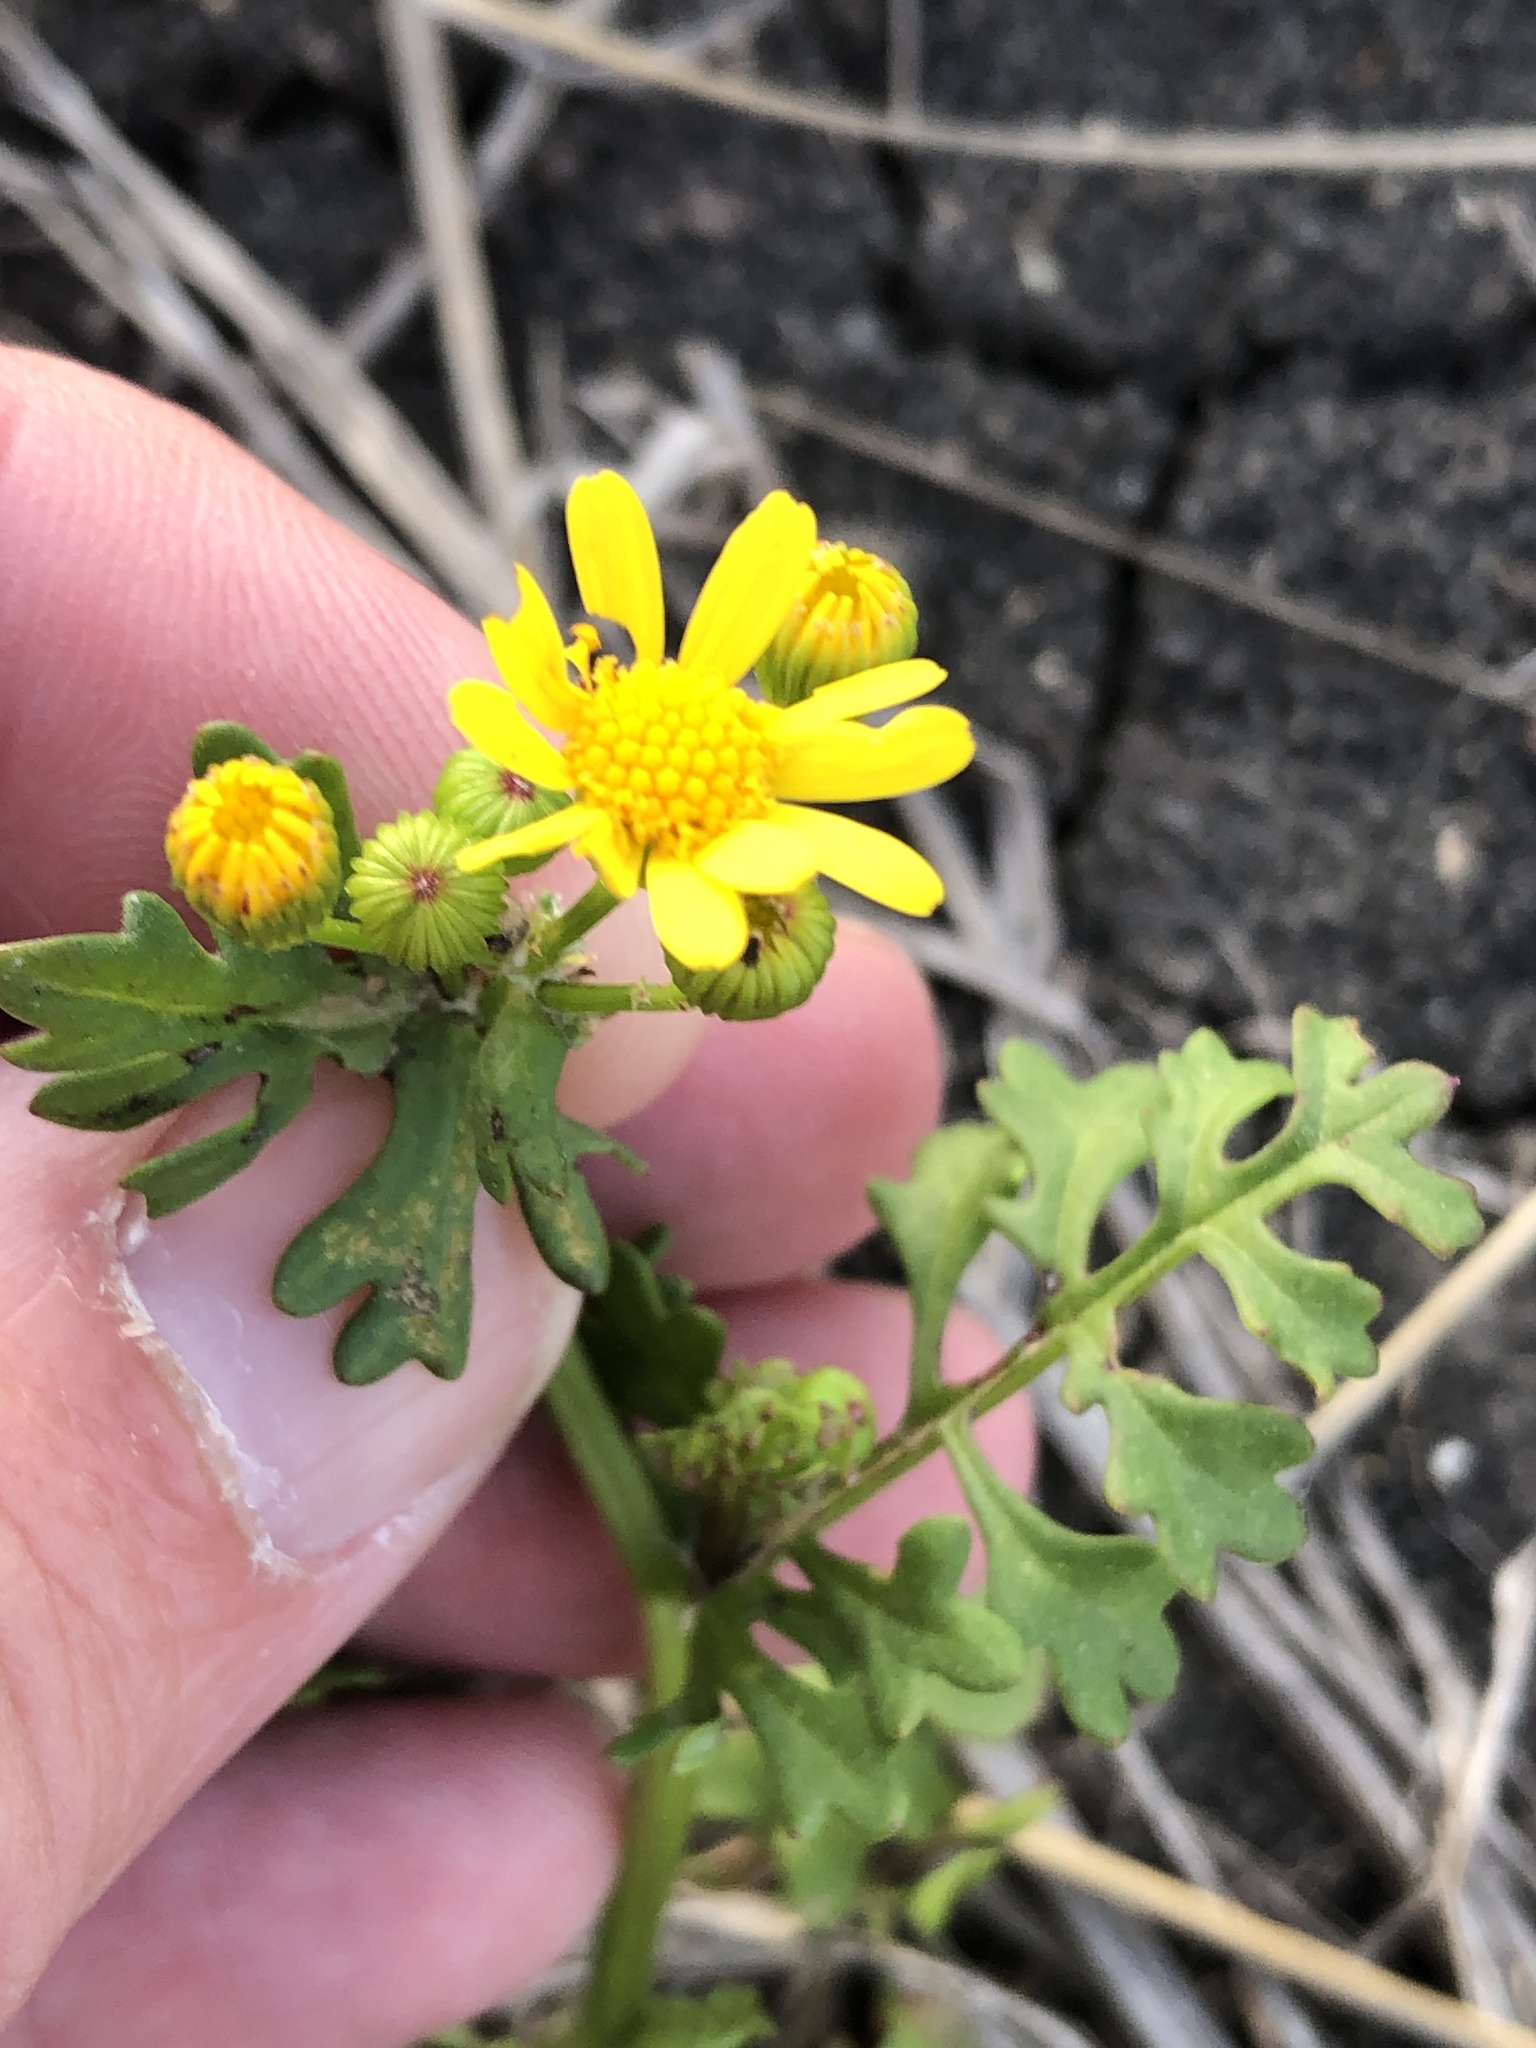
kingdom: Plantae
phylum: Tracheophyta
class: Magnoliopsida
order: Asterales
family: Asteraceae
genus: Packera
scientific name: Packera tampicana
